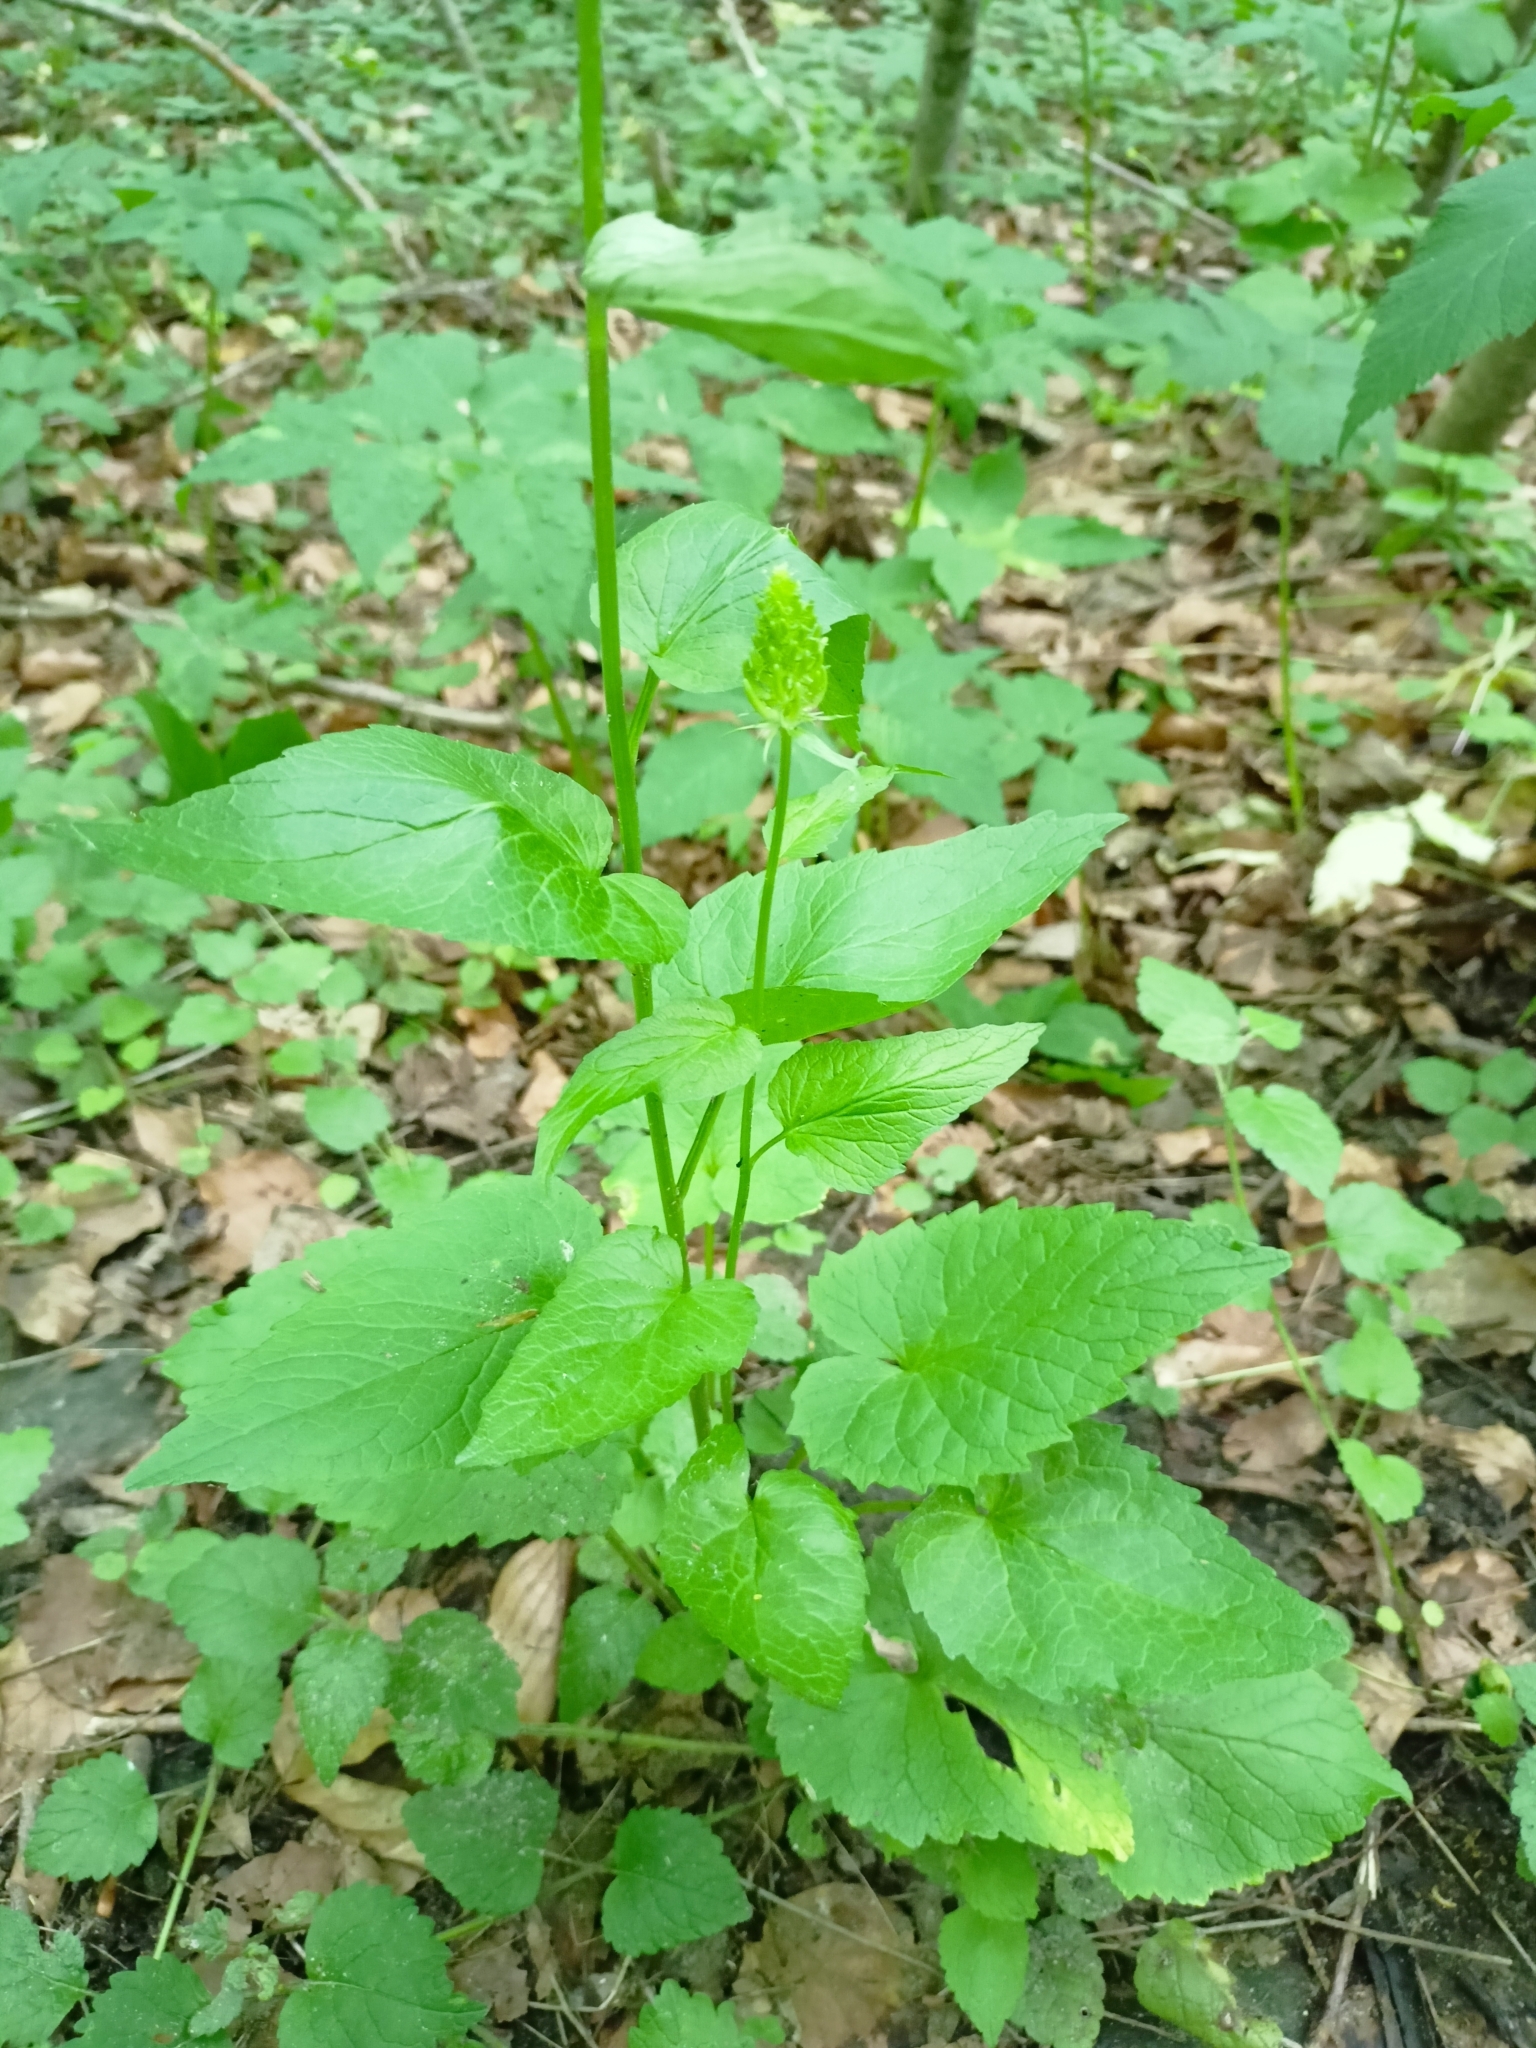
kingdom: Plantae
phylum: Tracheophyta
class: Magnoliopsida
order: Asterales
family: Campanulaceae
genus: Phyteuma
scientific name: Phyteuma spicatum
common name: Spiked rampion
